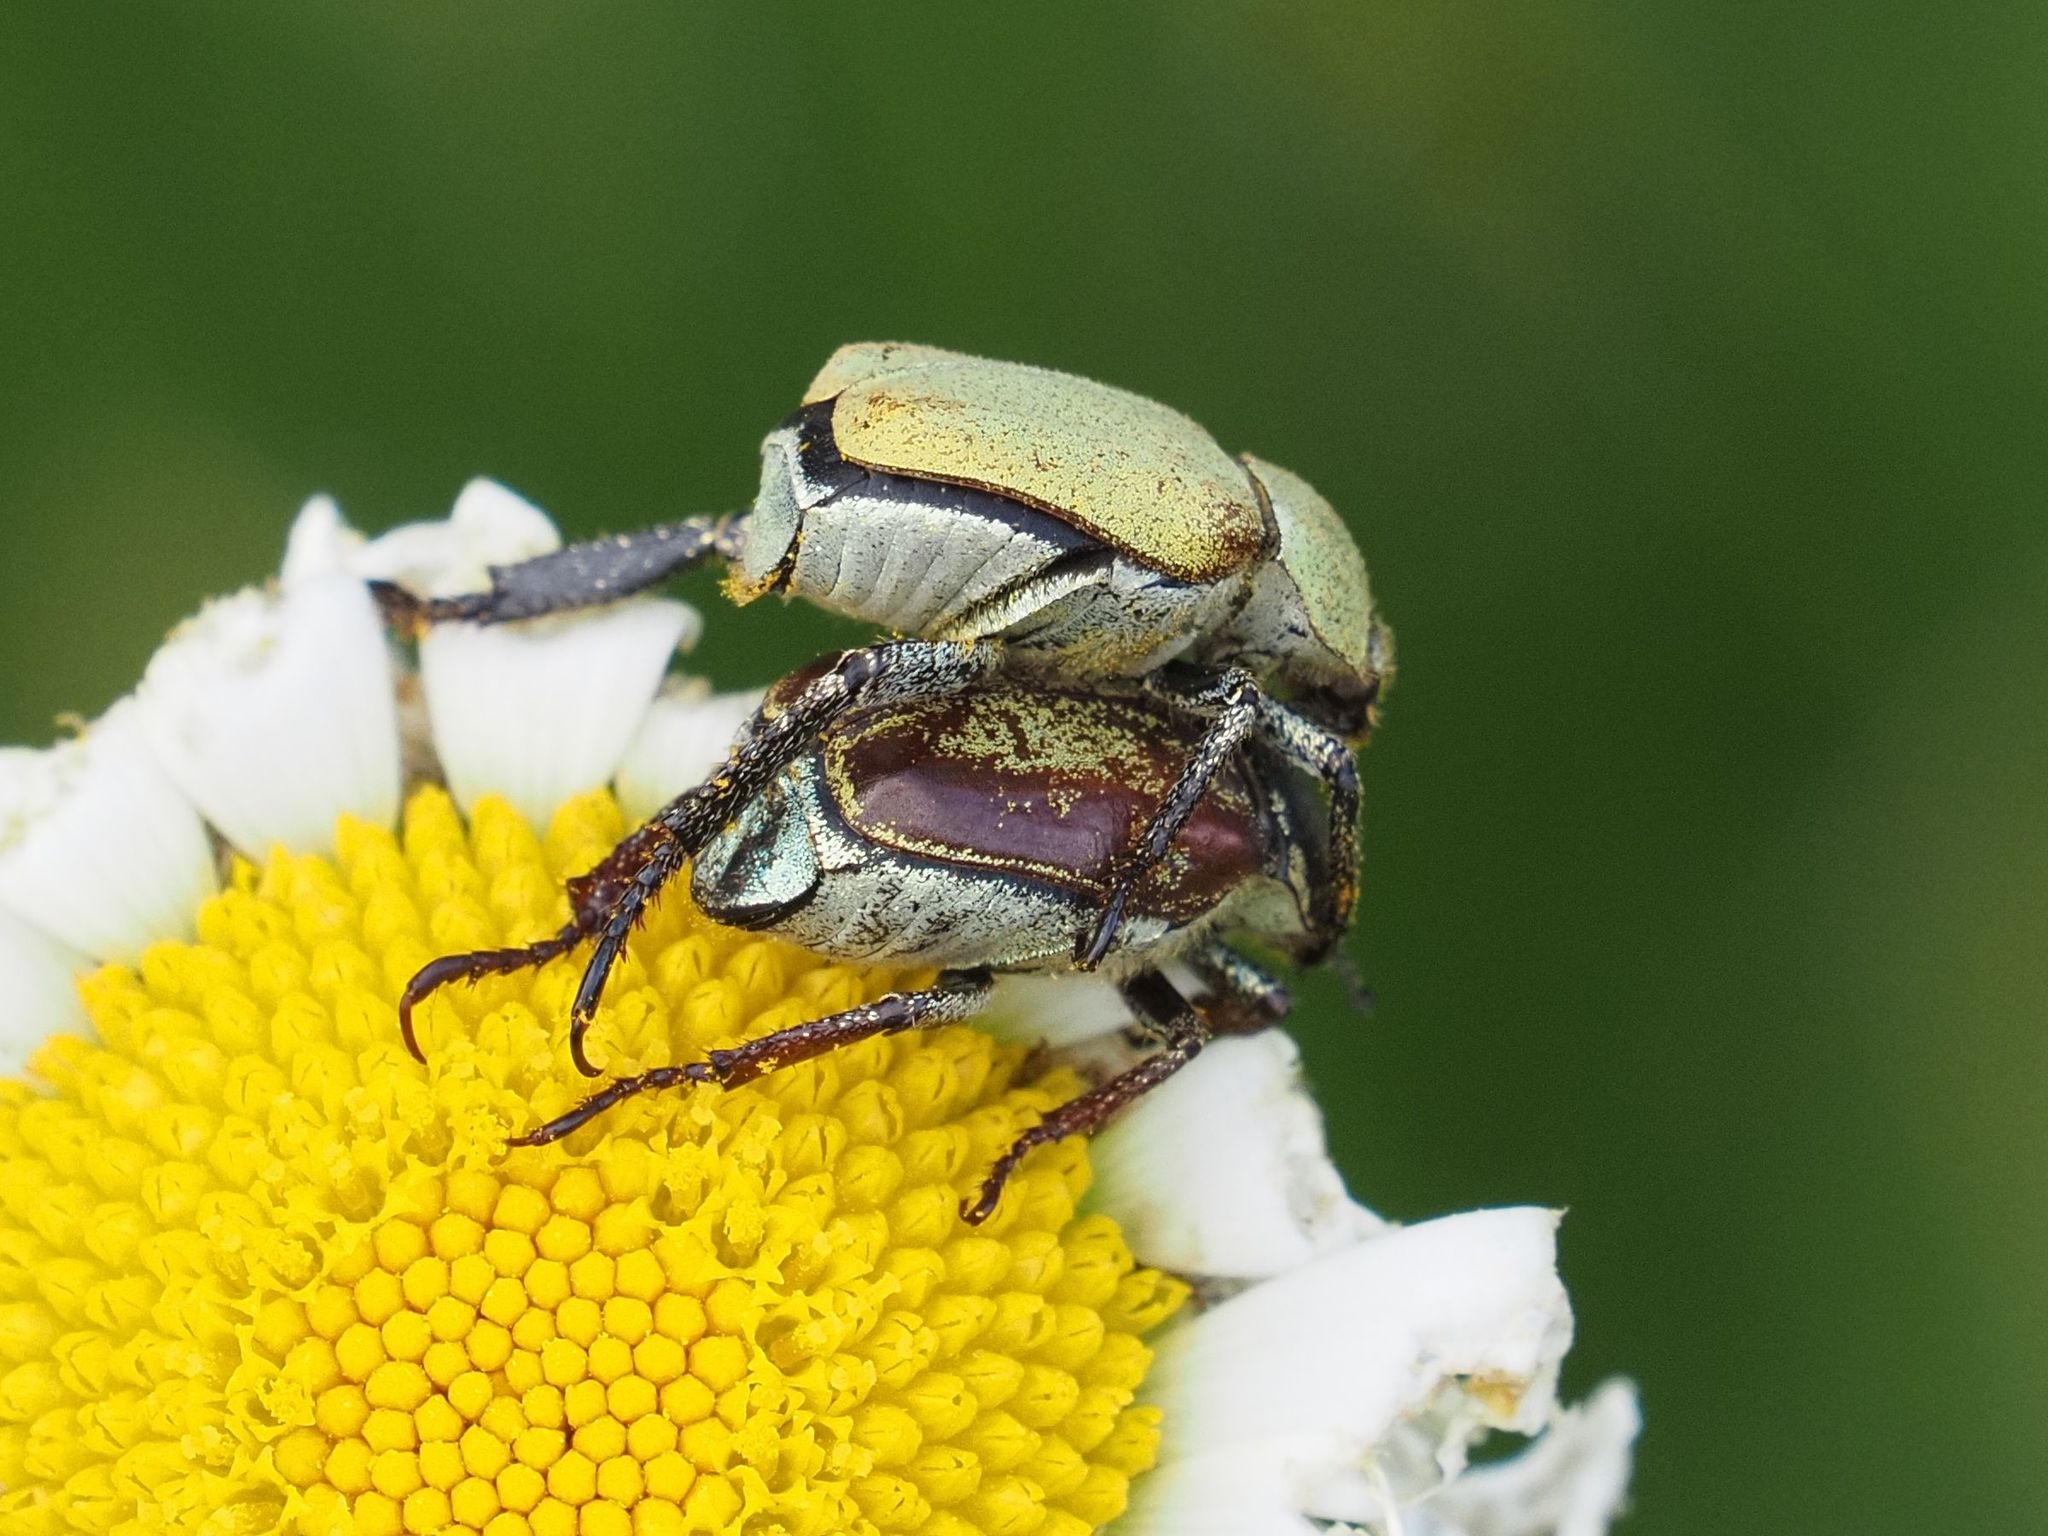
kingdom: Animalia
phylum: Arthropoda
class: Insecta
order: Coleoptera
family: Scarabaeidae
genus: Hoplia
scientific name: Hoplia argentea
